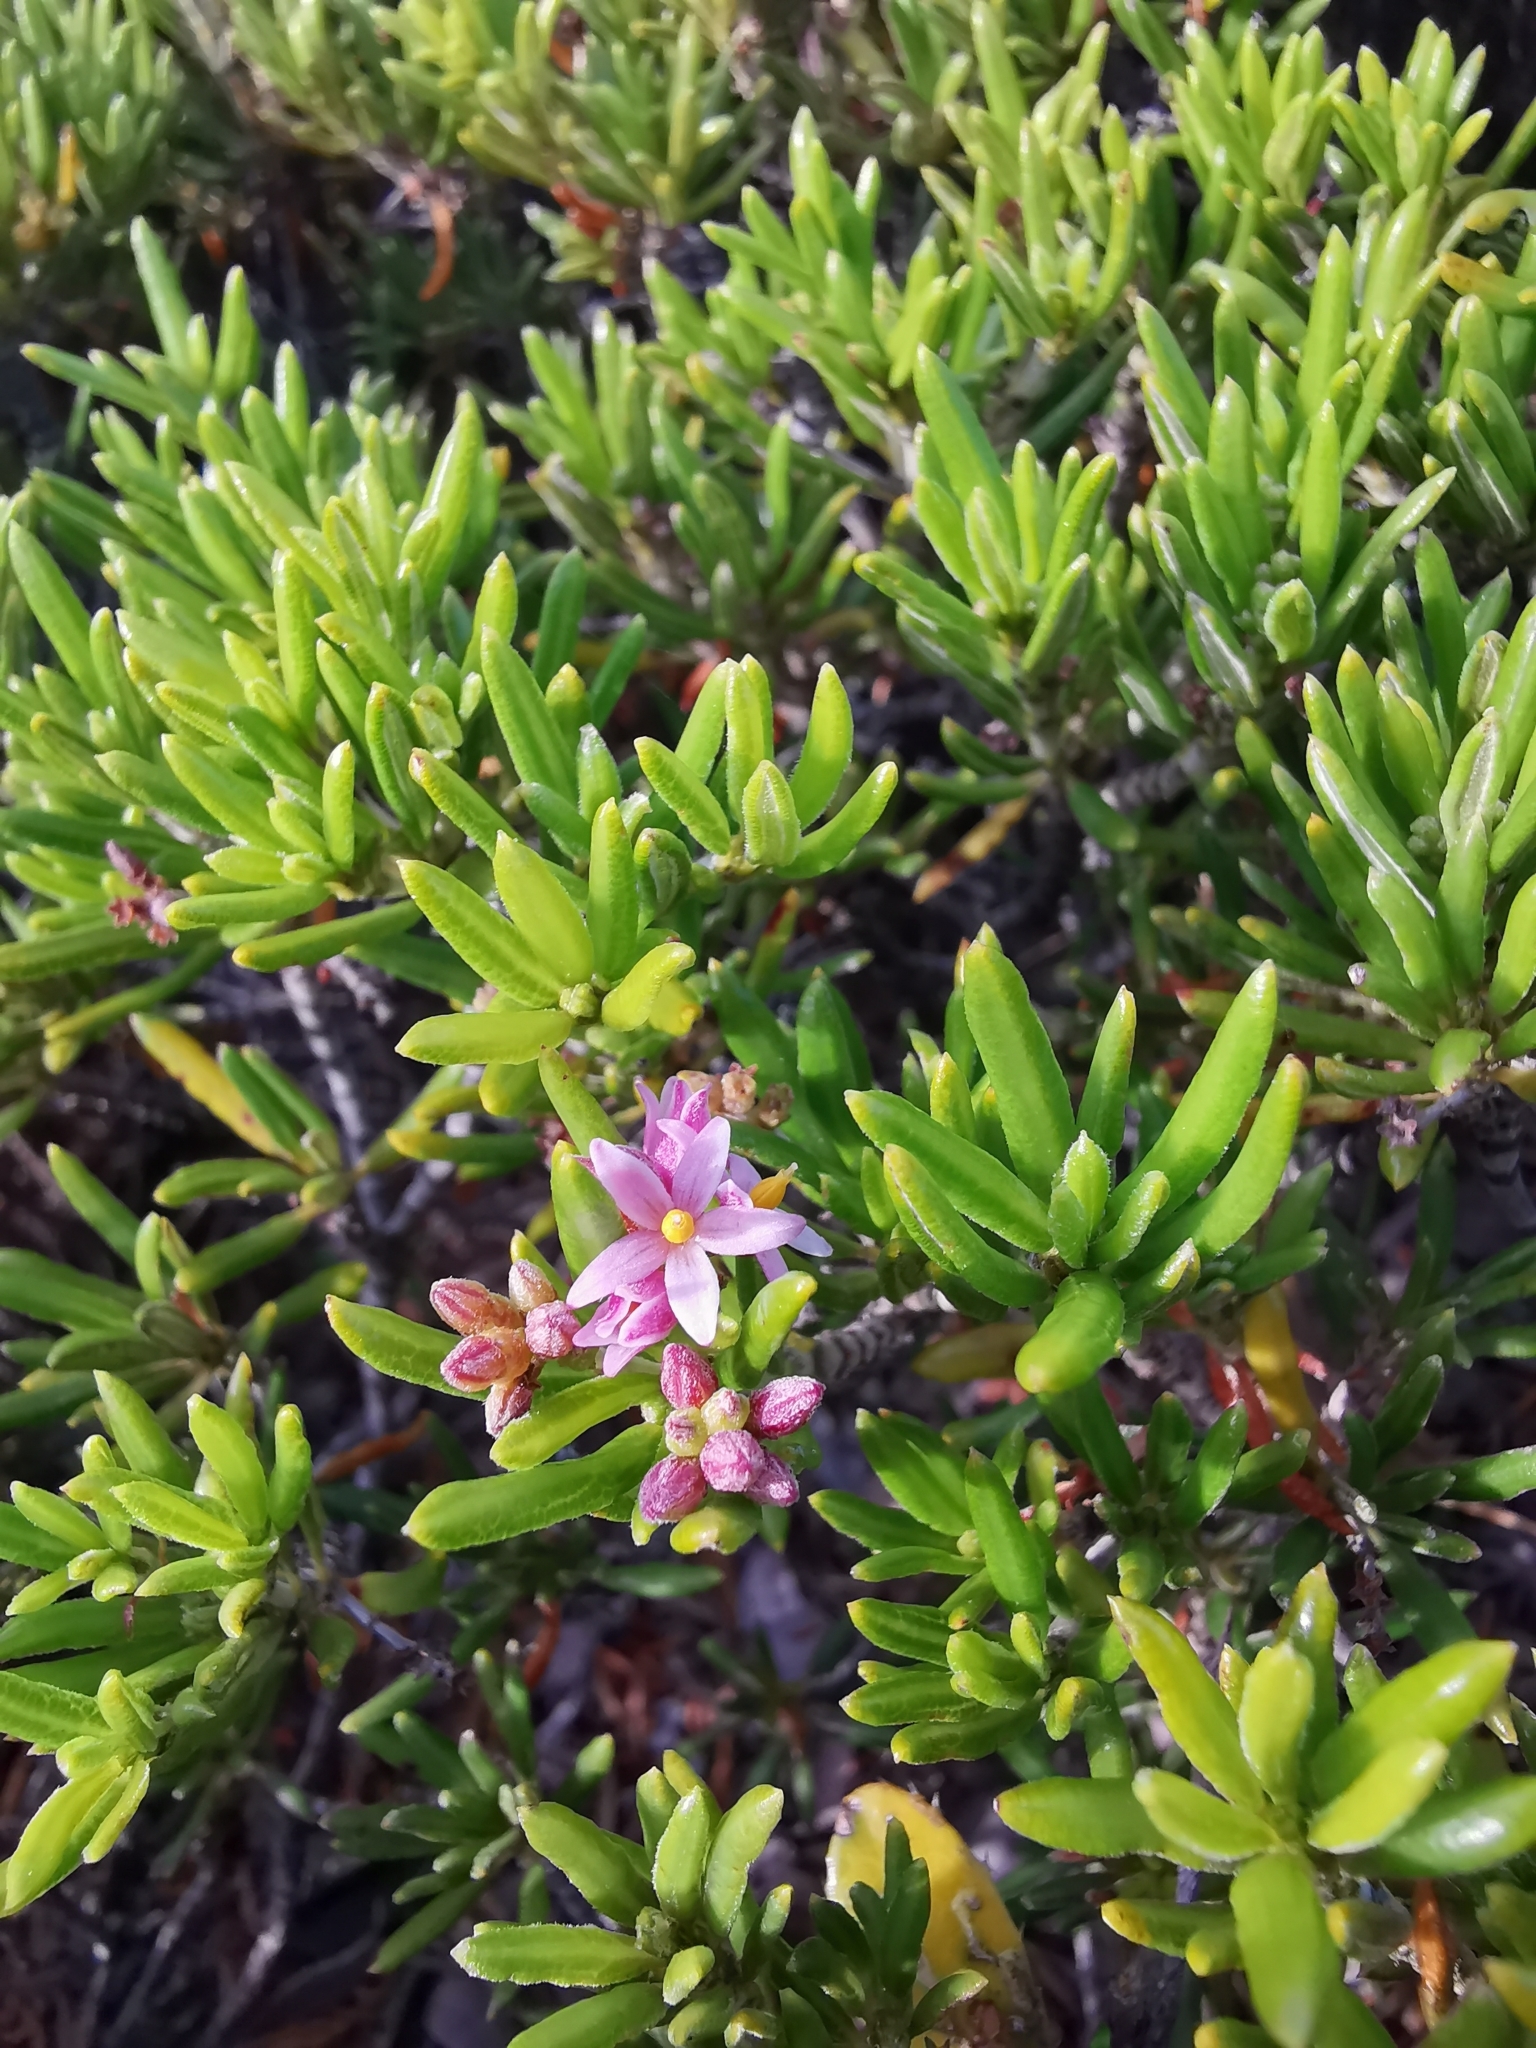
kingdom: Plantae
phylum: Tracheophyta
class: Magnoliopsida
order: Gentianales
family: Rubiaceae
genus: Strumpfia
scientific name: Strumpfia maritima
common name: Pride-of-big pine
